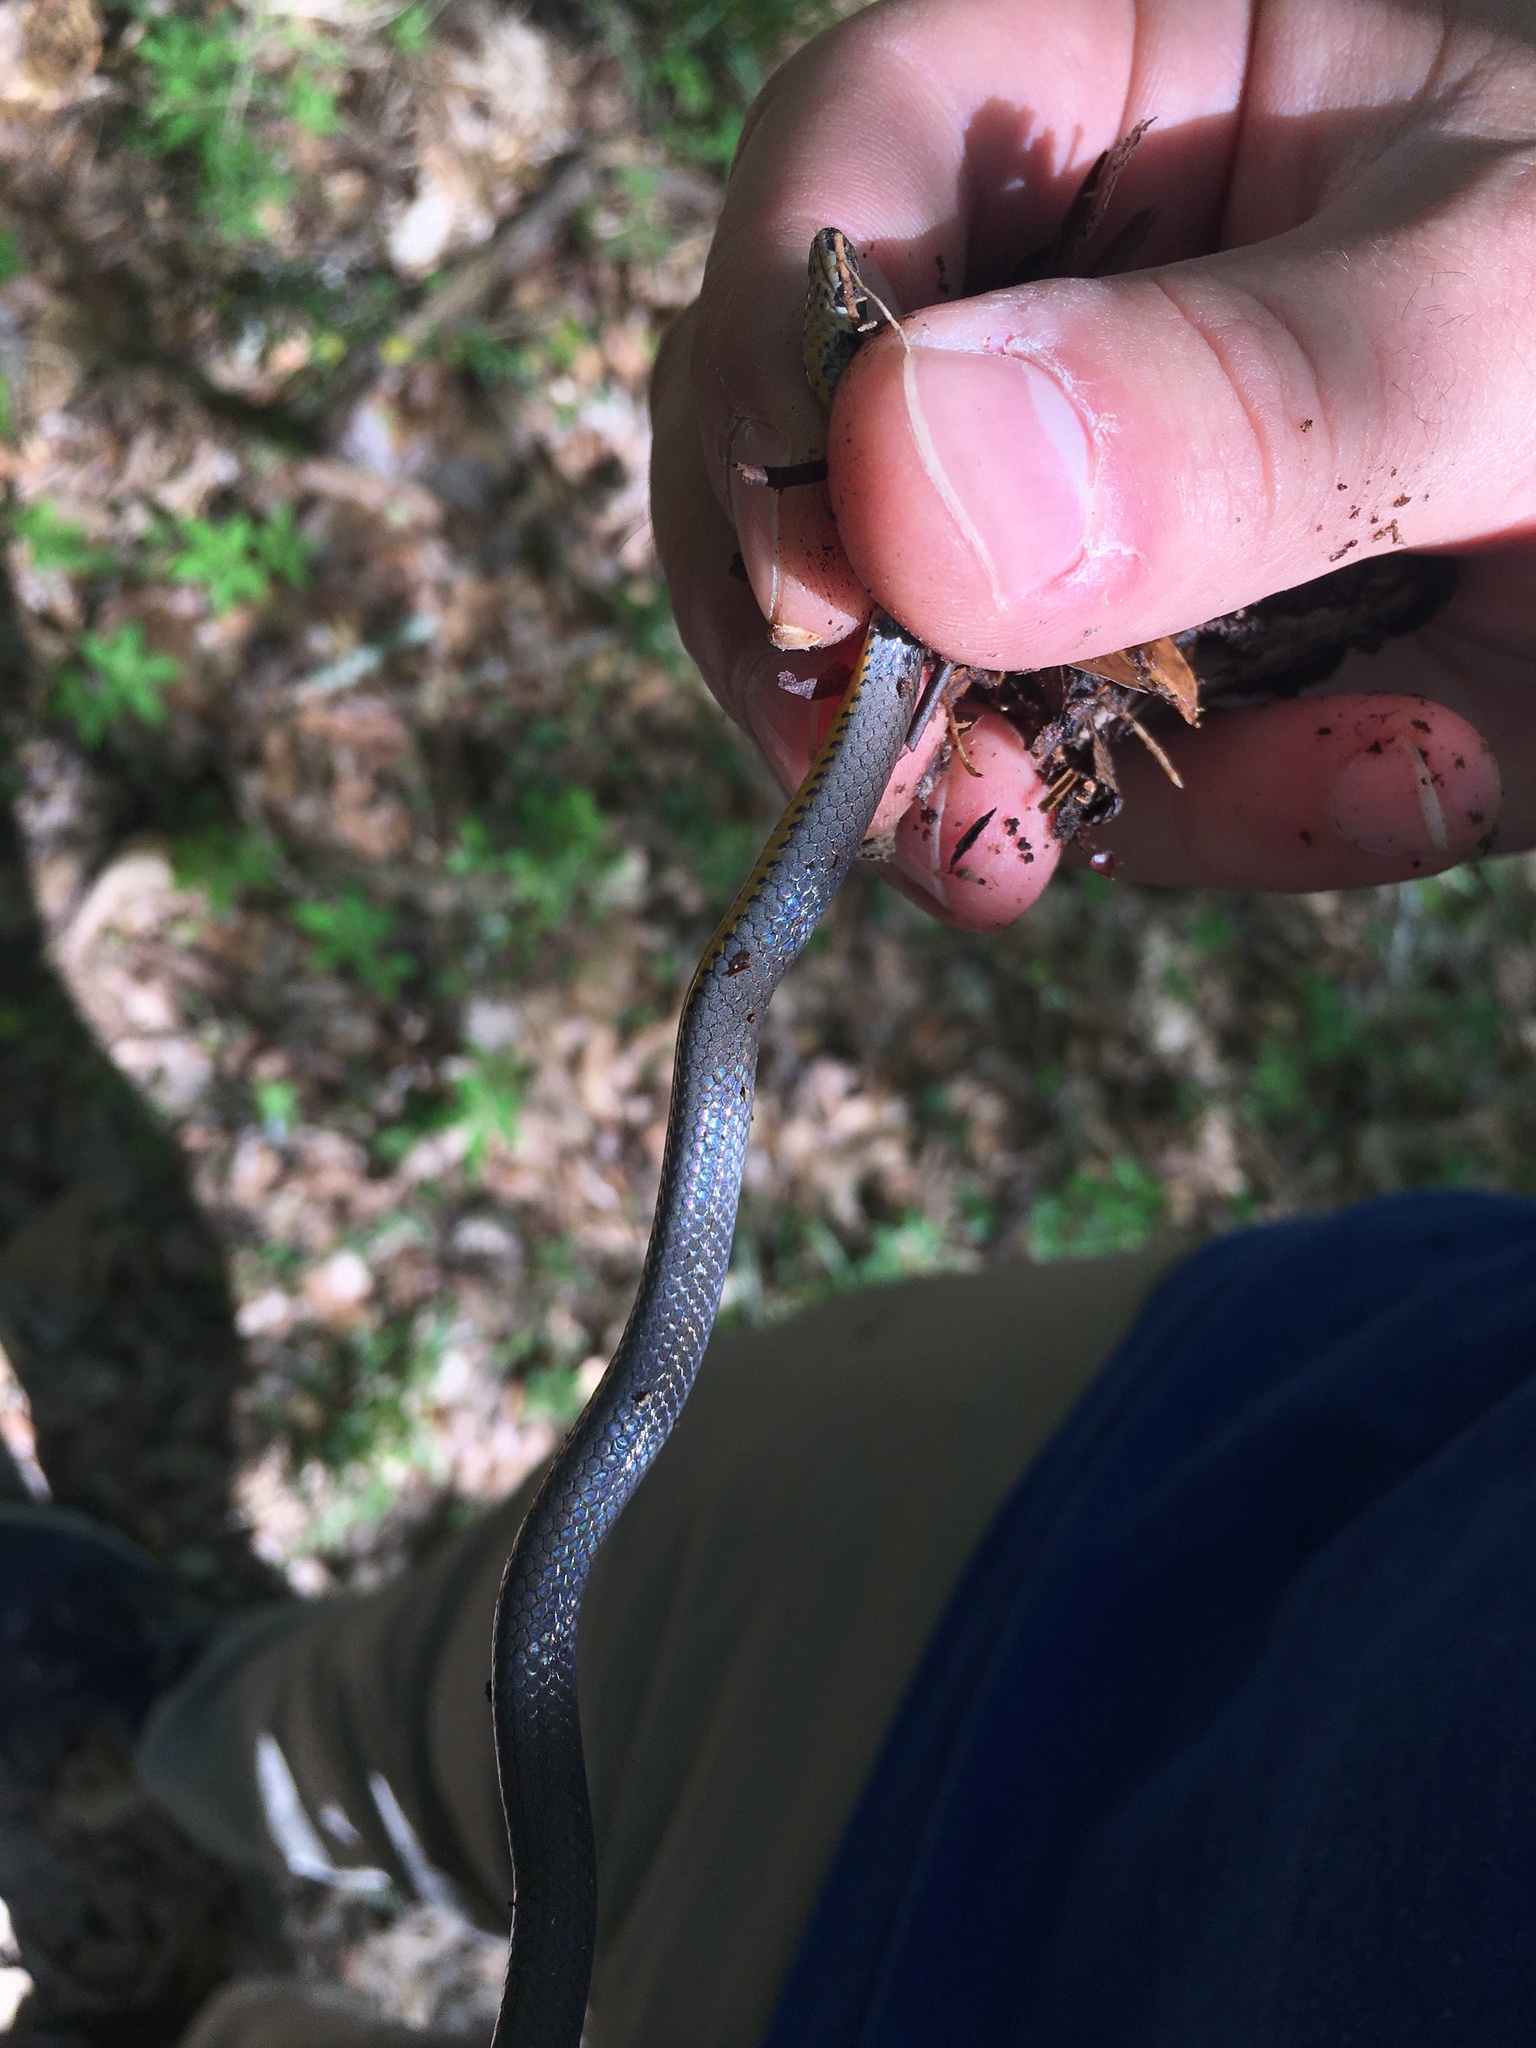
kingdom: Animalia
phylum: Chordata
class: Squamata
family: Colubridae
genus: Diadophis
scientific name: Diadophis punctatus
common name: Ringneck snake
